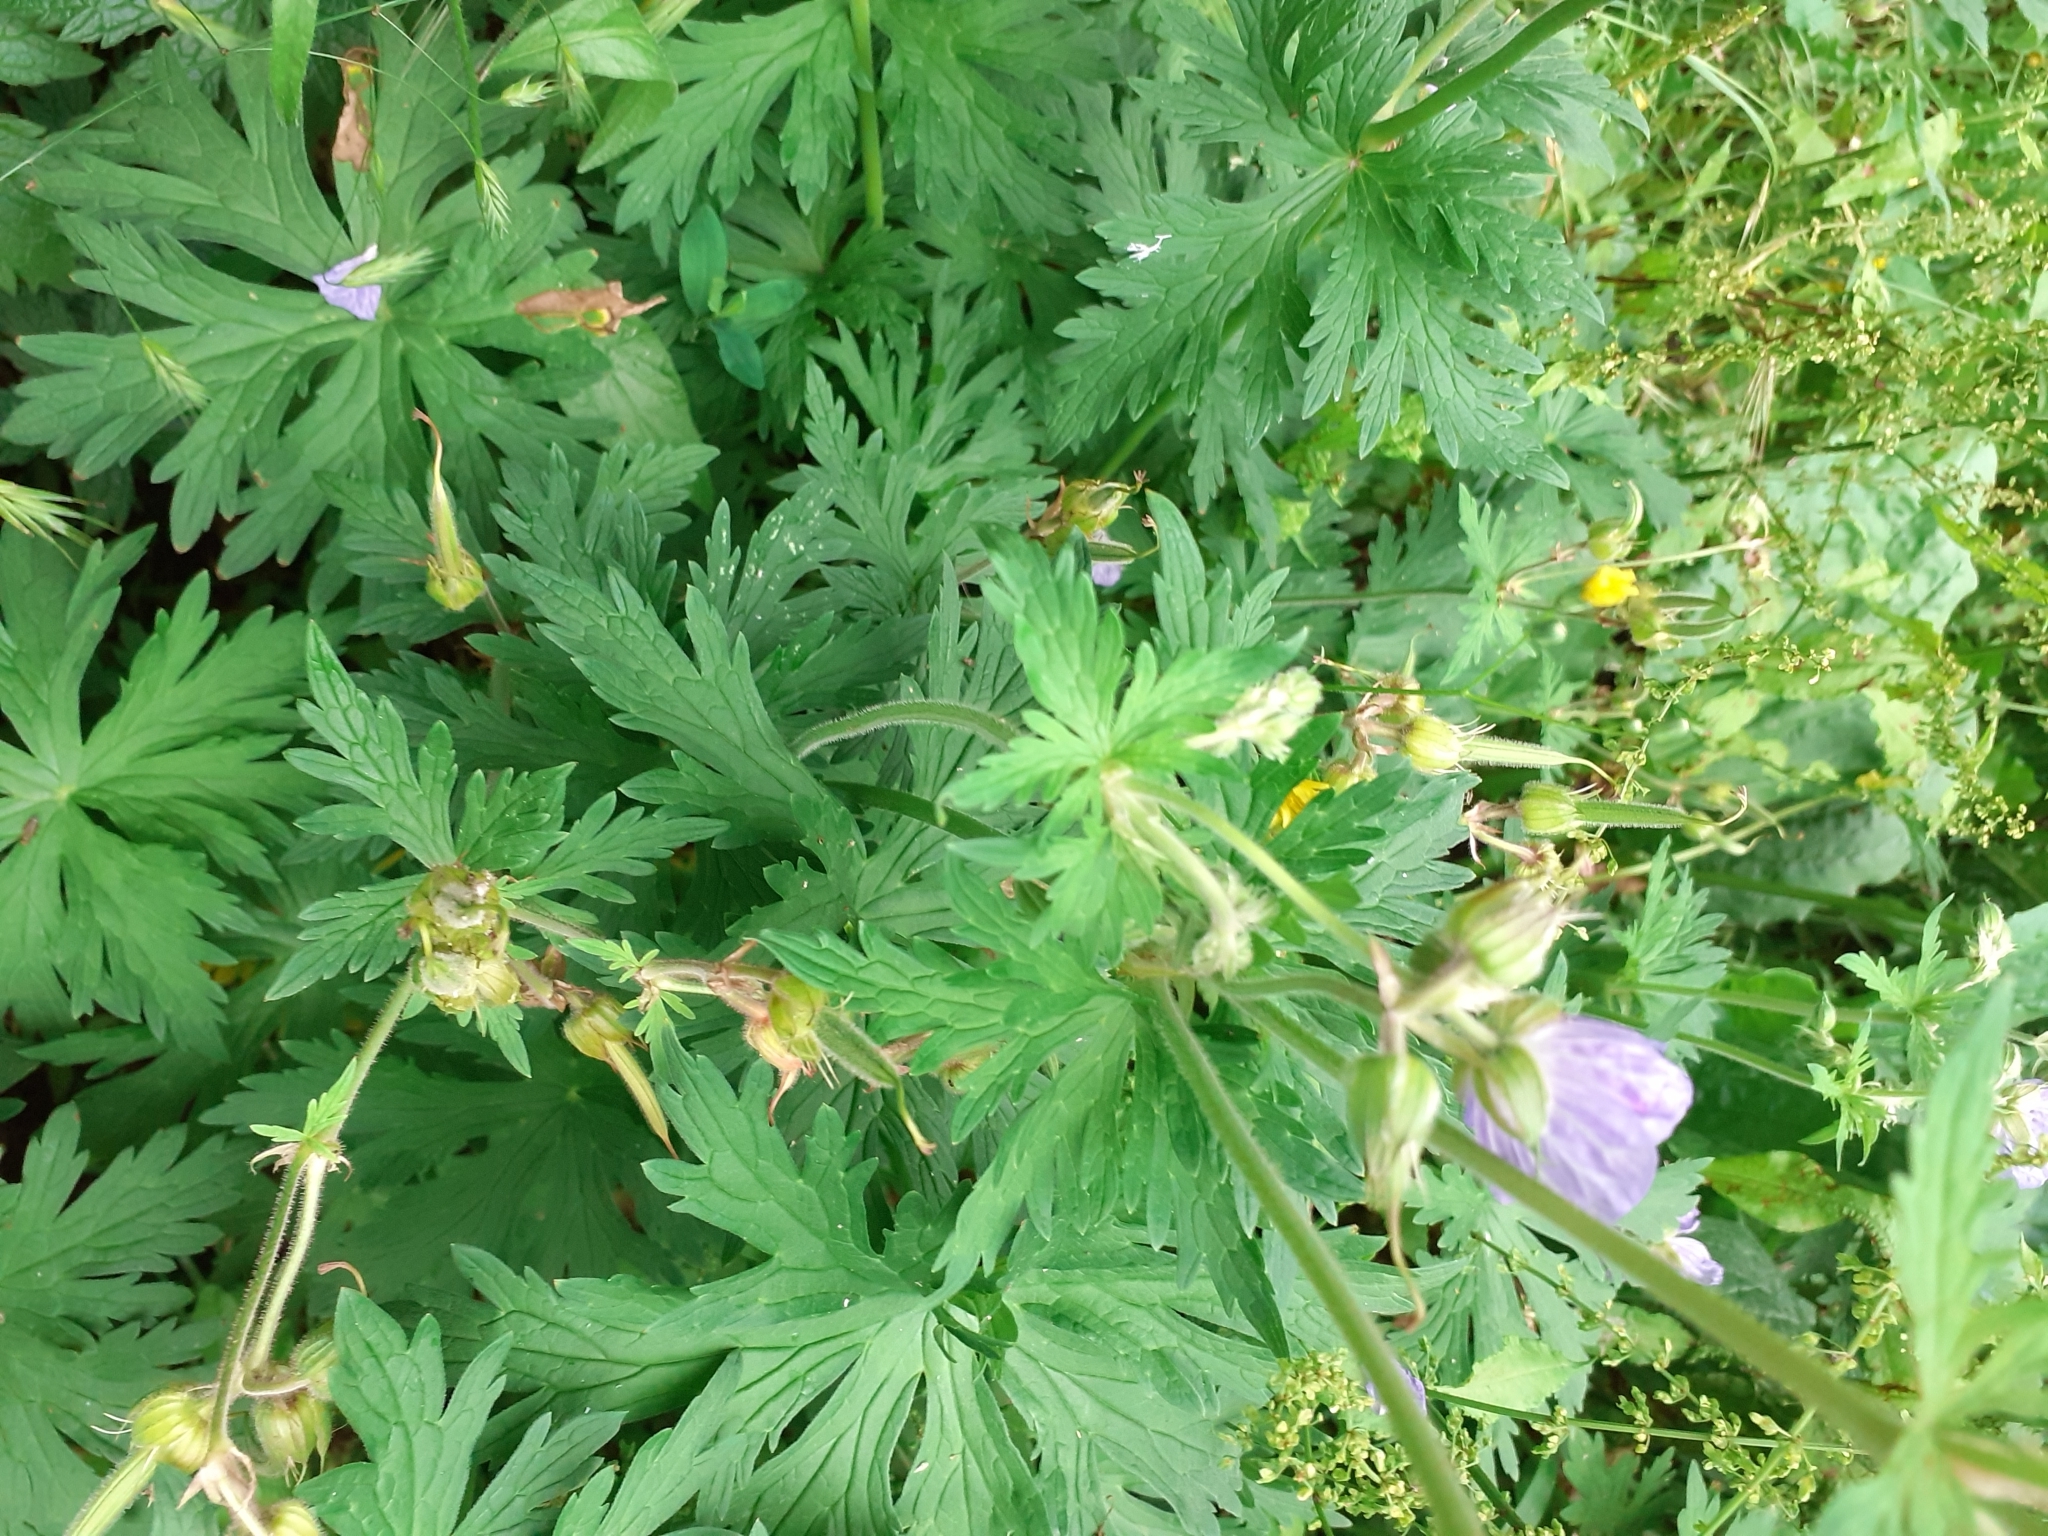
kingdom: Plantae
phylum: Tracheophyta
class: Magnoliopsida
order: Geraniales
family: Geraniaceae
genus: Geranium
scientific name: Geranium pratense
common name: Meadow crane's-bill
